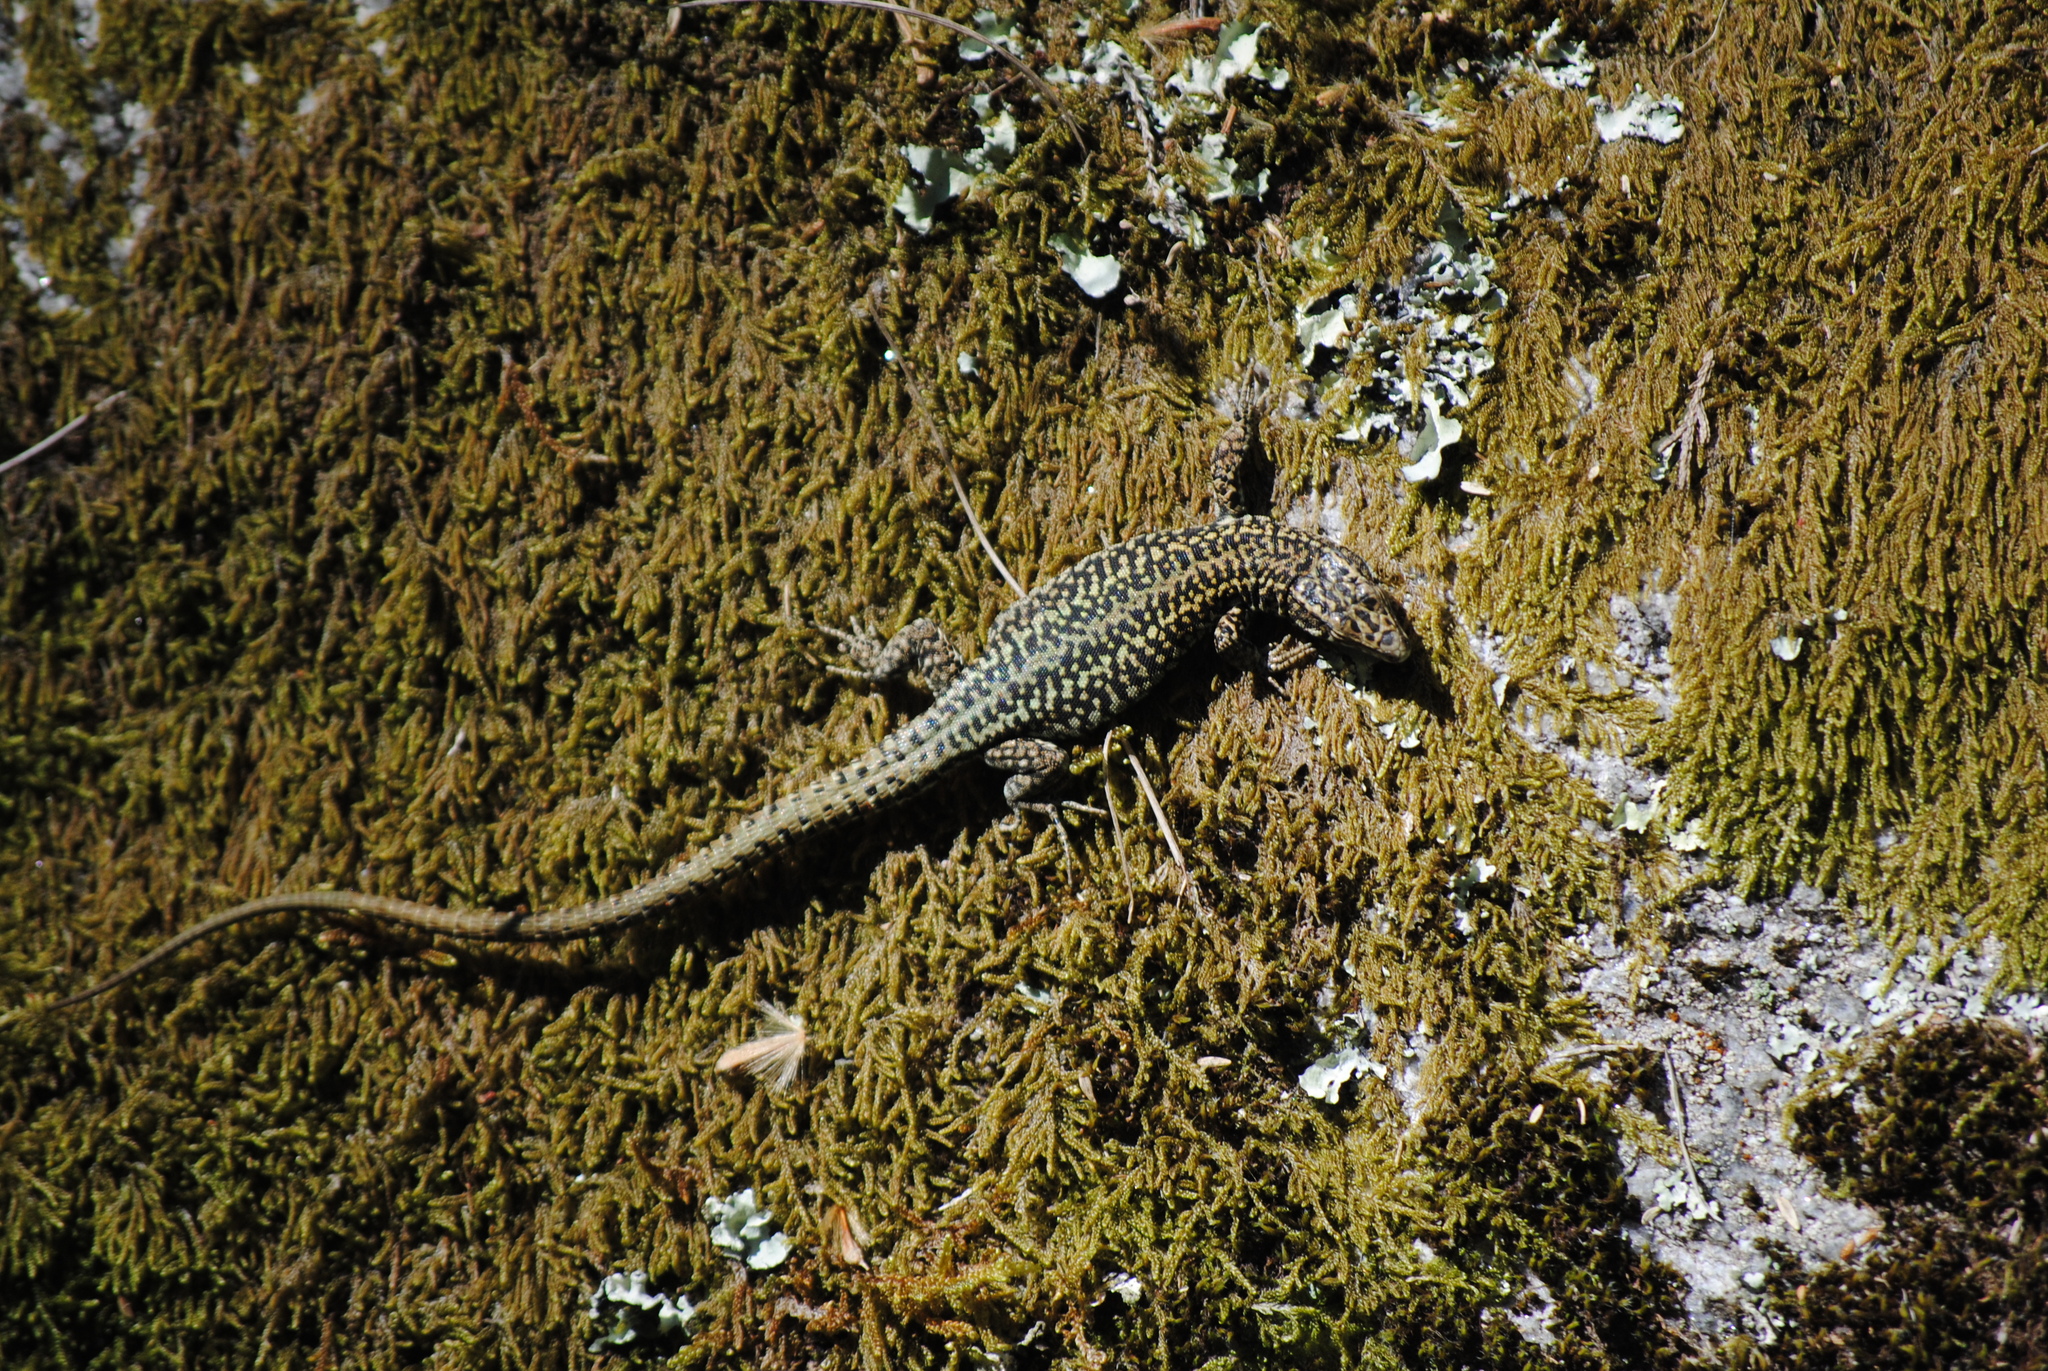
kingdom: Animalia
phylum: Chordata
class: Squamata
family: Lacertidae
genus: Podarcis
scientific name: Podarcis
